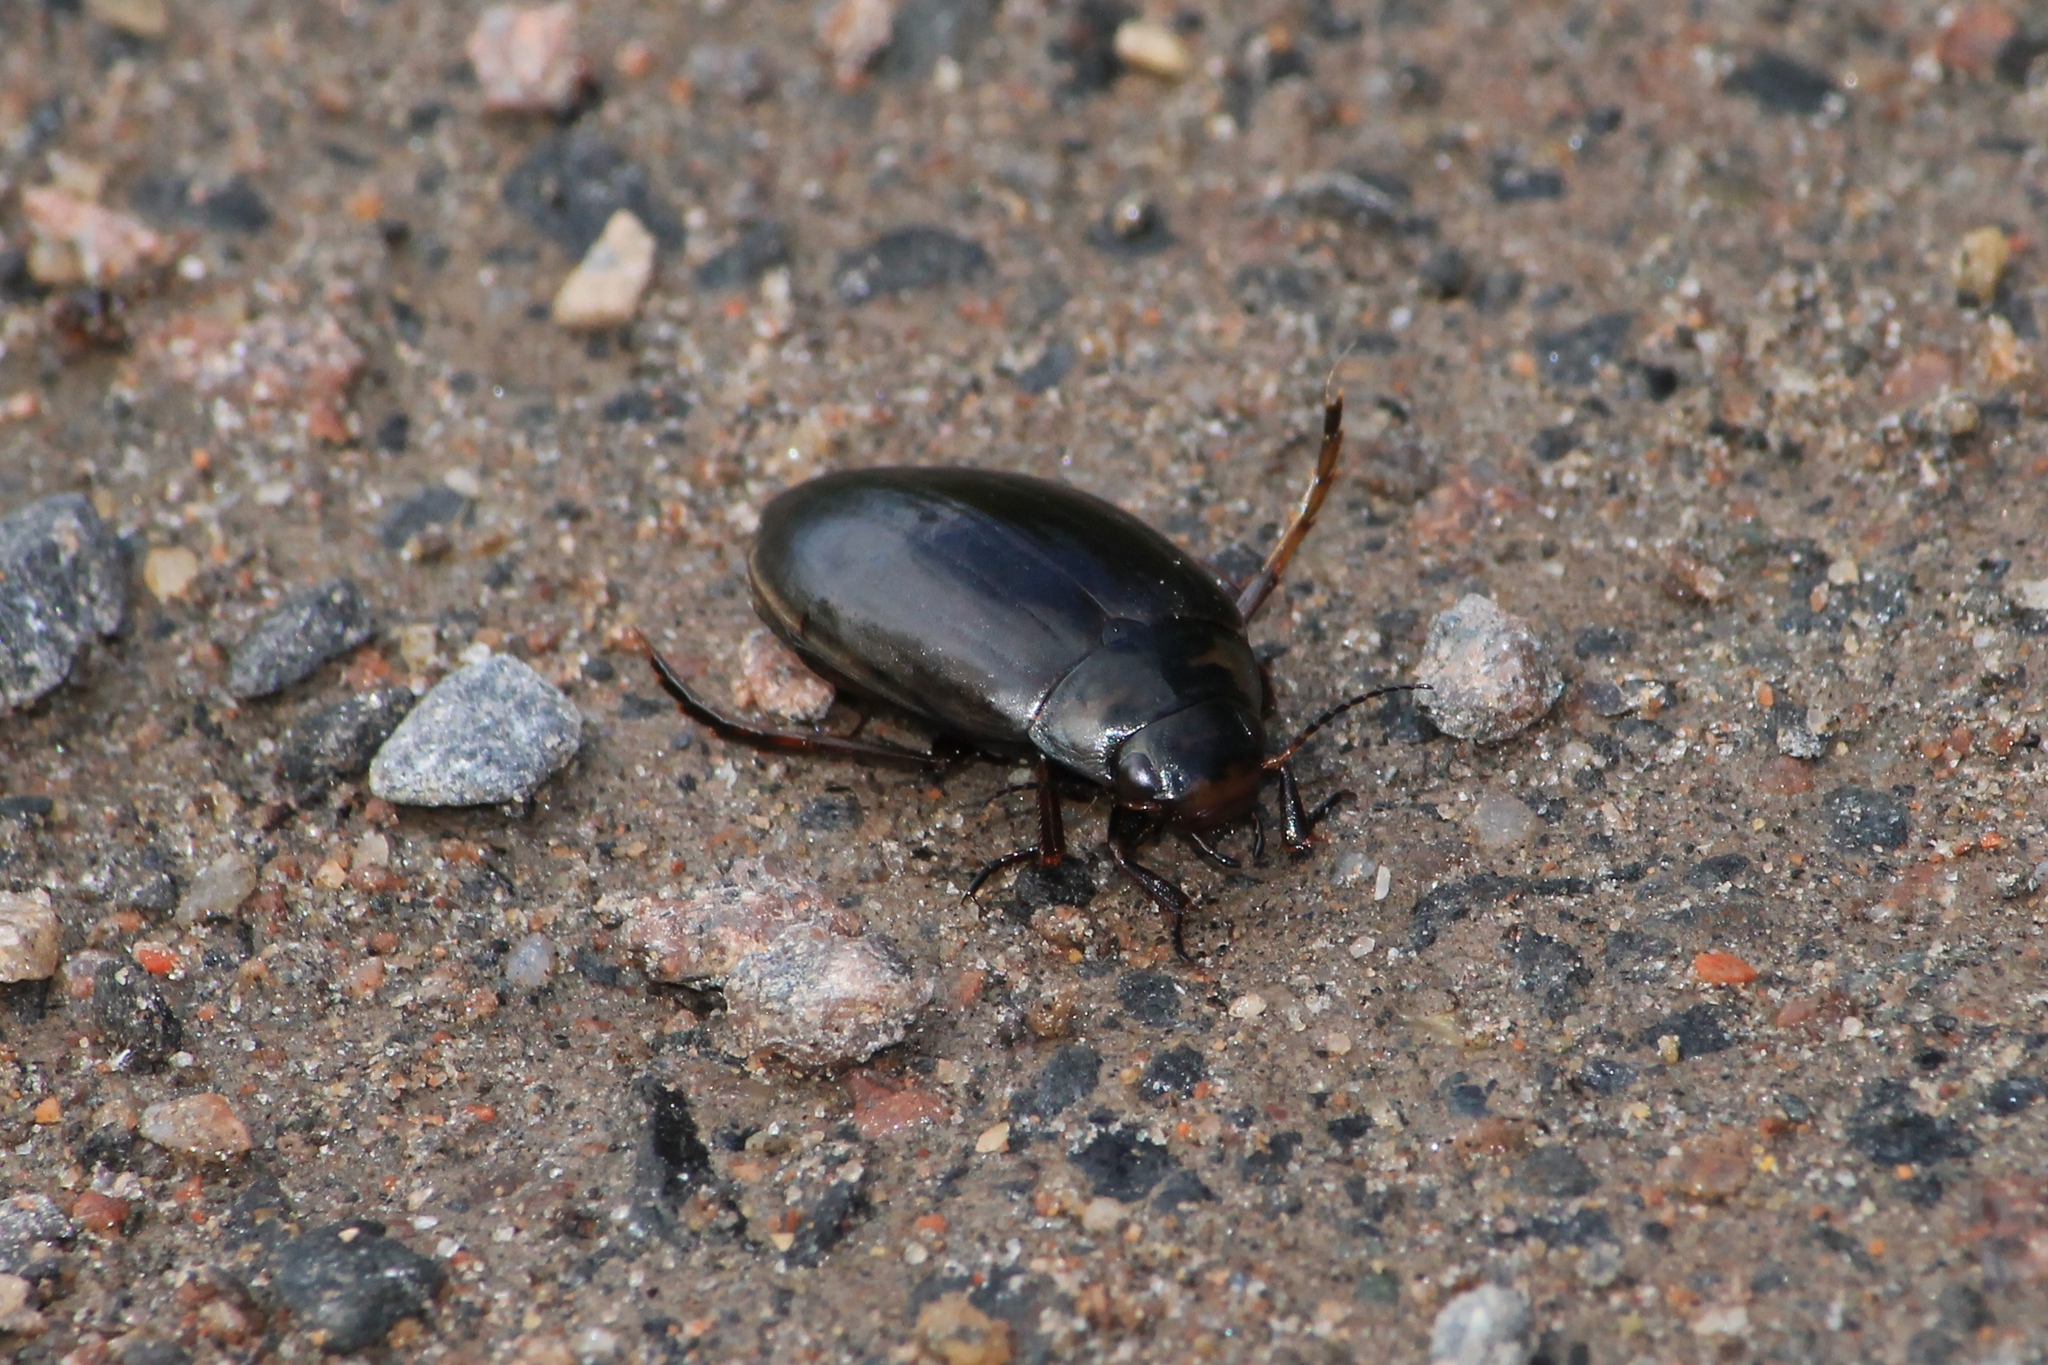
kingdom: Animalia
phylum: Arthropoda
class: Insecta
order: Coleoptera
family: Dytiscidae
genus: Colymbetes
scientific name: Colymbetes paykulli
